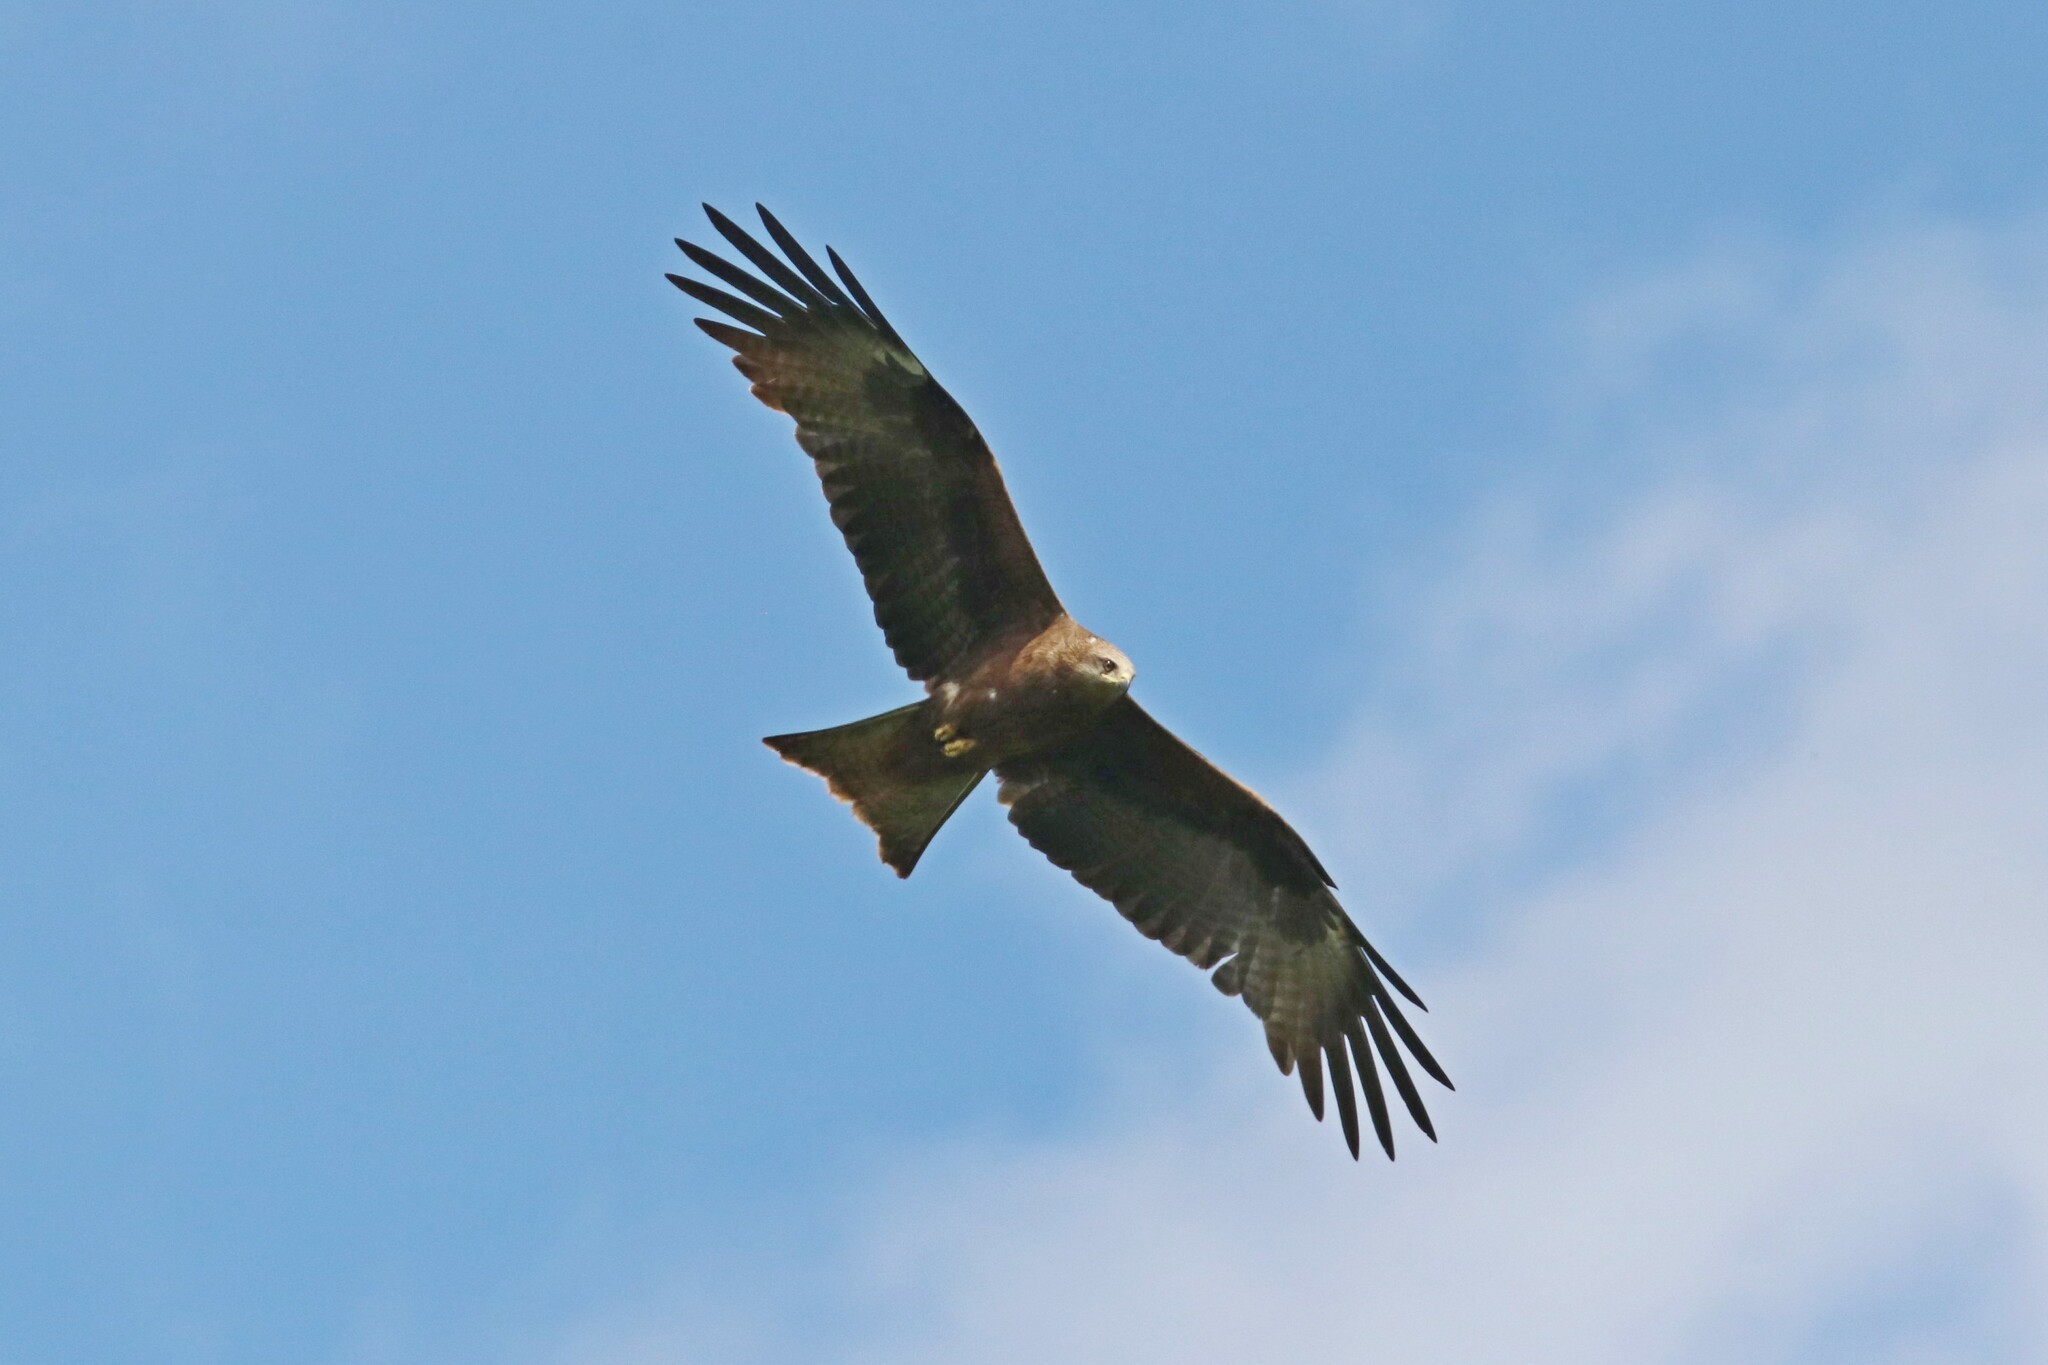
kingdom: Animalia
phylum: Chordata
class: Aves
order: Accipitriformes
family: Accipitridae
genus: Milvus
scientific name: Milvus migrans
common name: Black kite
